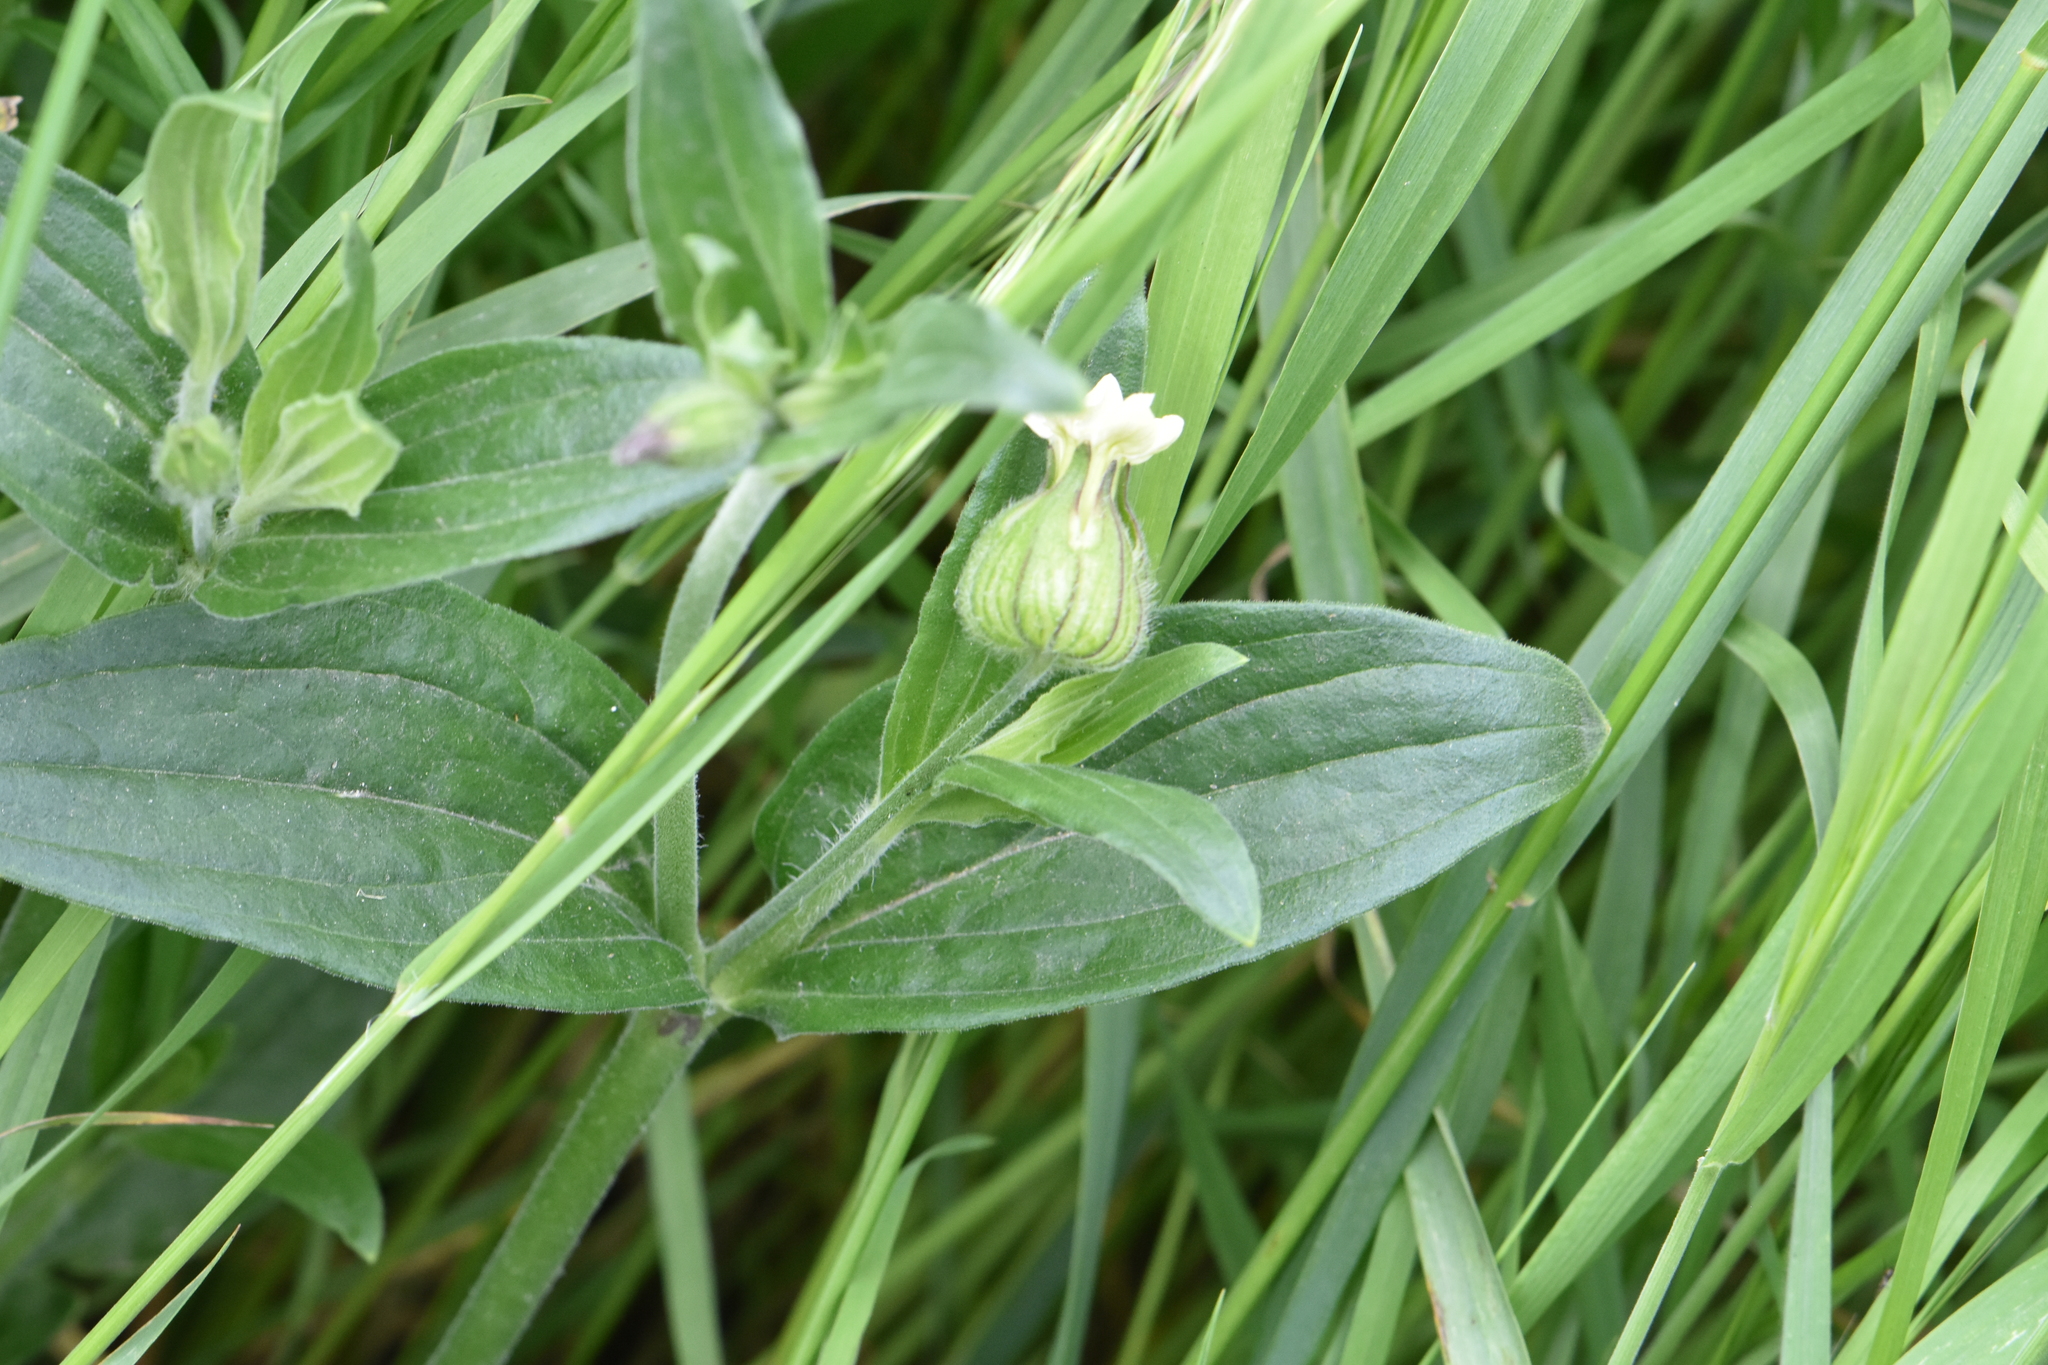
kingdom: Plantae
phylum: Tracheophyta
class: Magnoliopsida
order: Caryophyllales
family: Caryophyllaceae
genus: Silene
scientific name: Silene latifolia
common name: White campion
